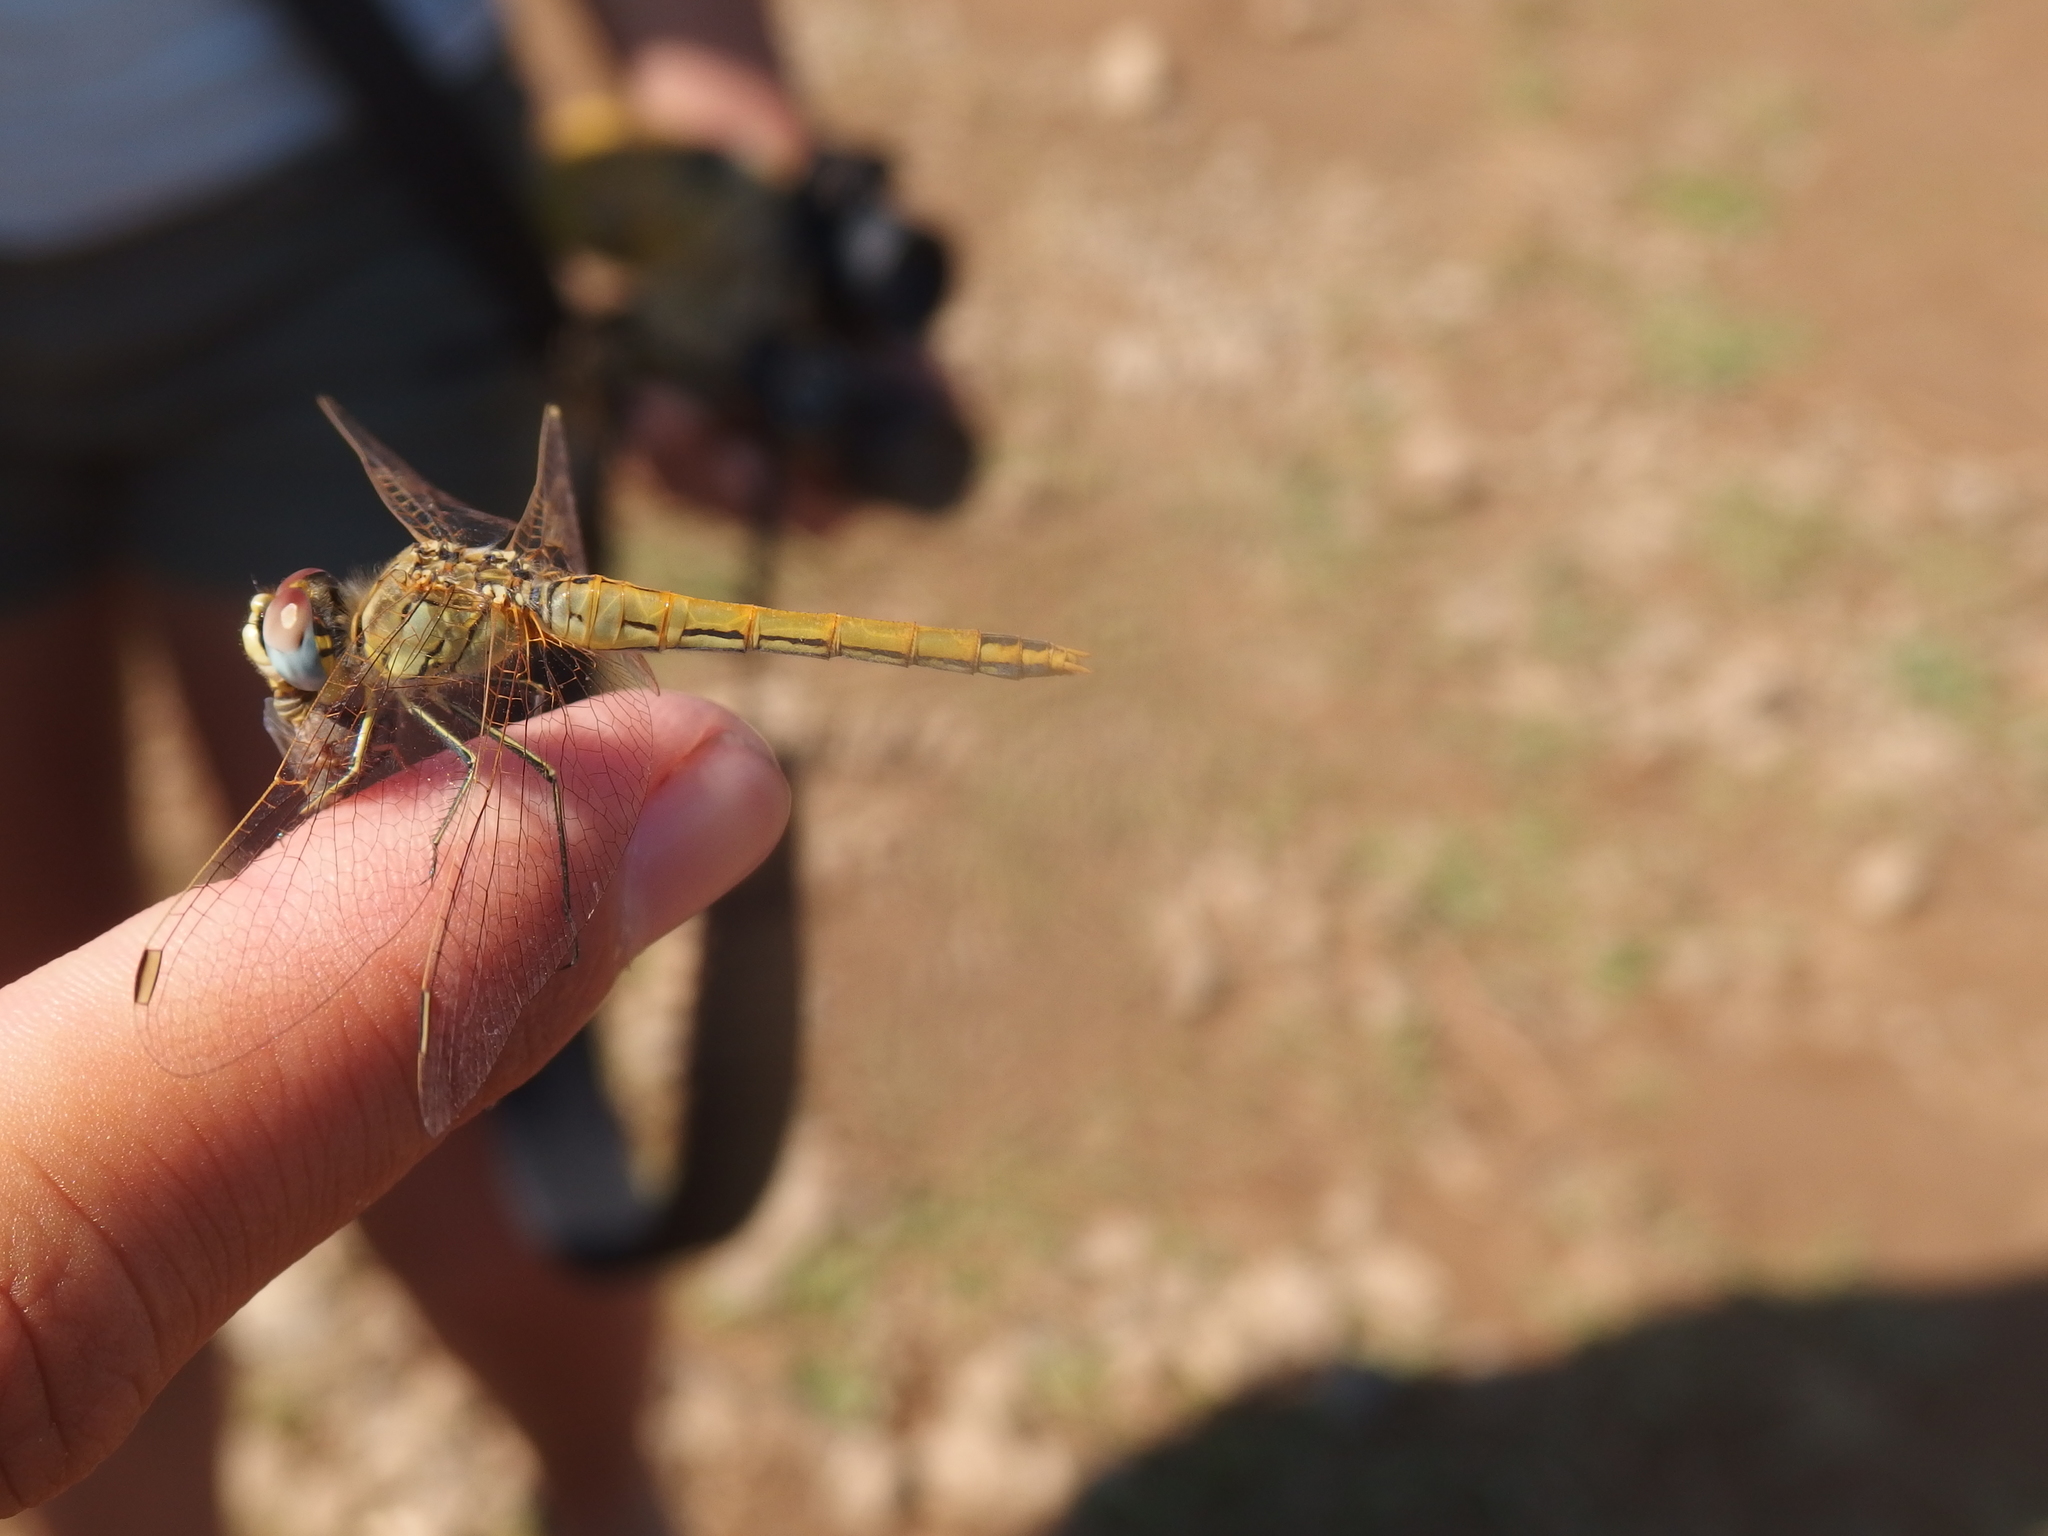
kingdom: Animalia
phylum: Arthropoda
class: Insecta
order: Odonata
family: Libellulidae
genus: Sympetrum
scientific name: Sympetrum fonscolombii
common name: Red-veined darter
